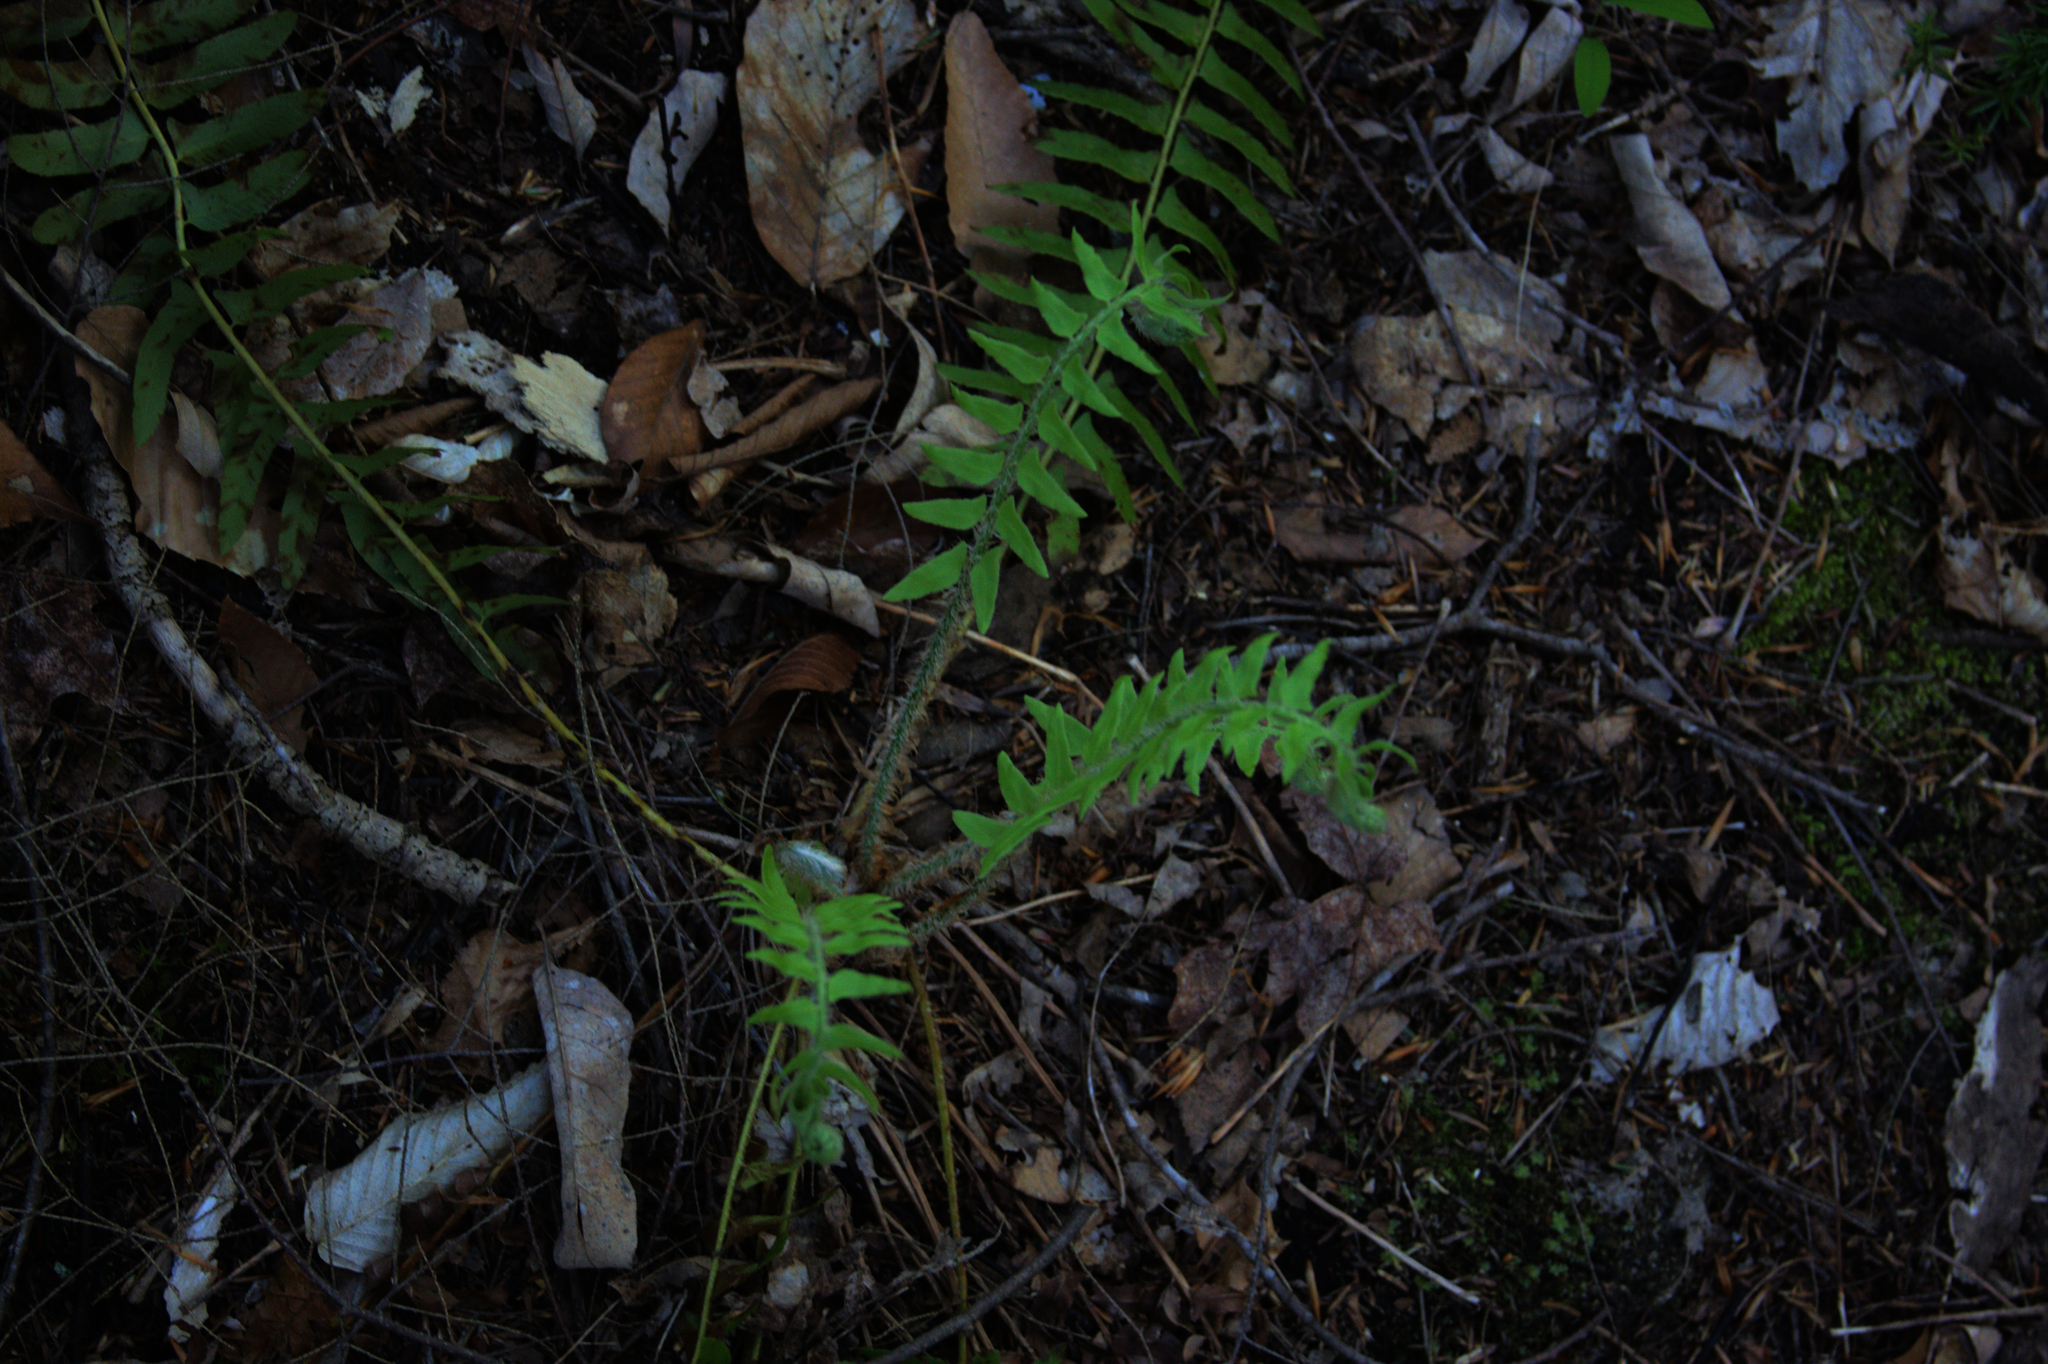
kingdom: Plantae
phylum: Tracheophyta
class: Polypodiopsida
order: Polypodiales
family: Dryopteridaceae
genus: Polystichum
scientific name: Polystichum acrostichoides
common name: Christmas fern
